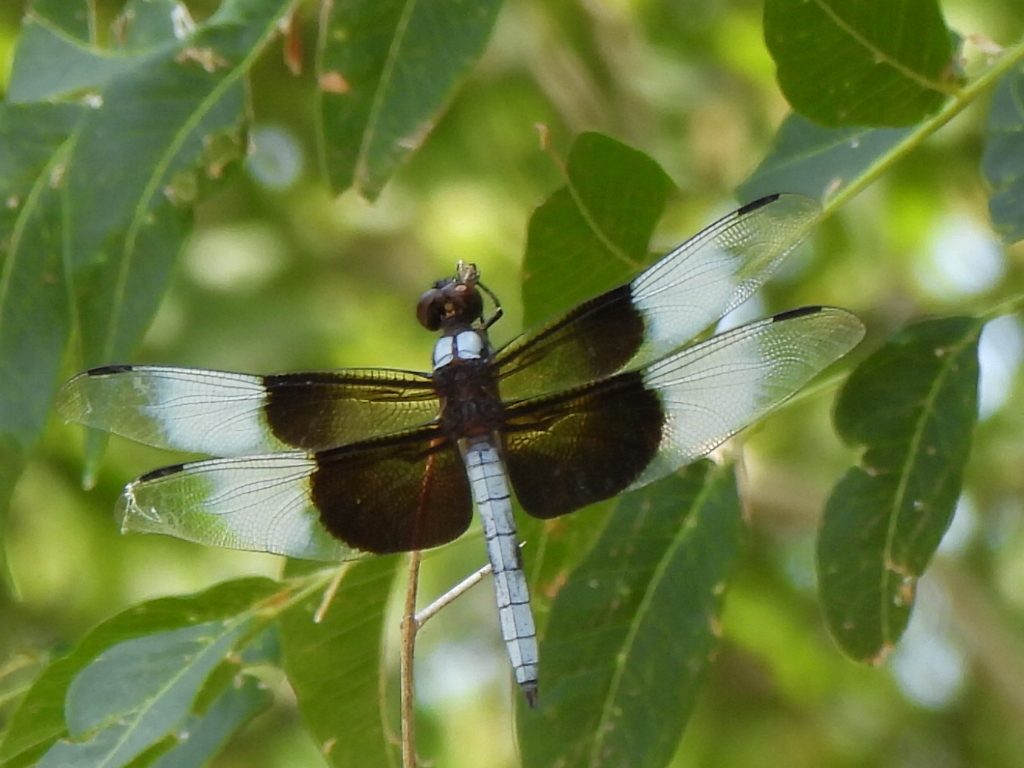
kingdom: Animalia
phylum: Arthropoda
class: Insecta
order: Odonata
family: Libellulidae
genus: Libellula
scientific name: Libellula luctuosa
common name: Widow skimmer
